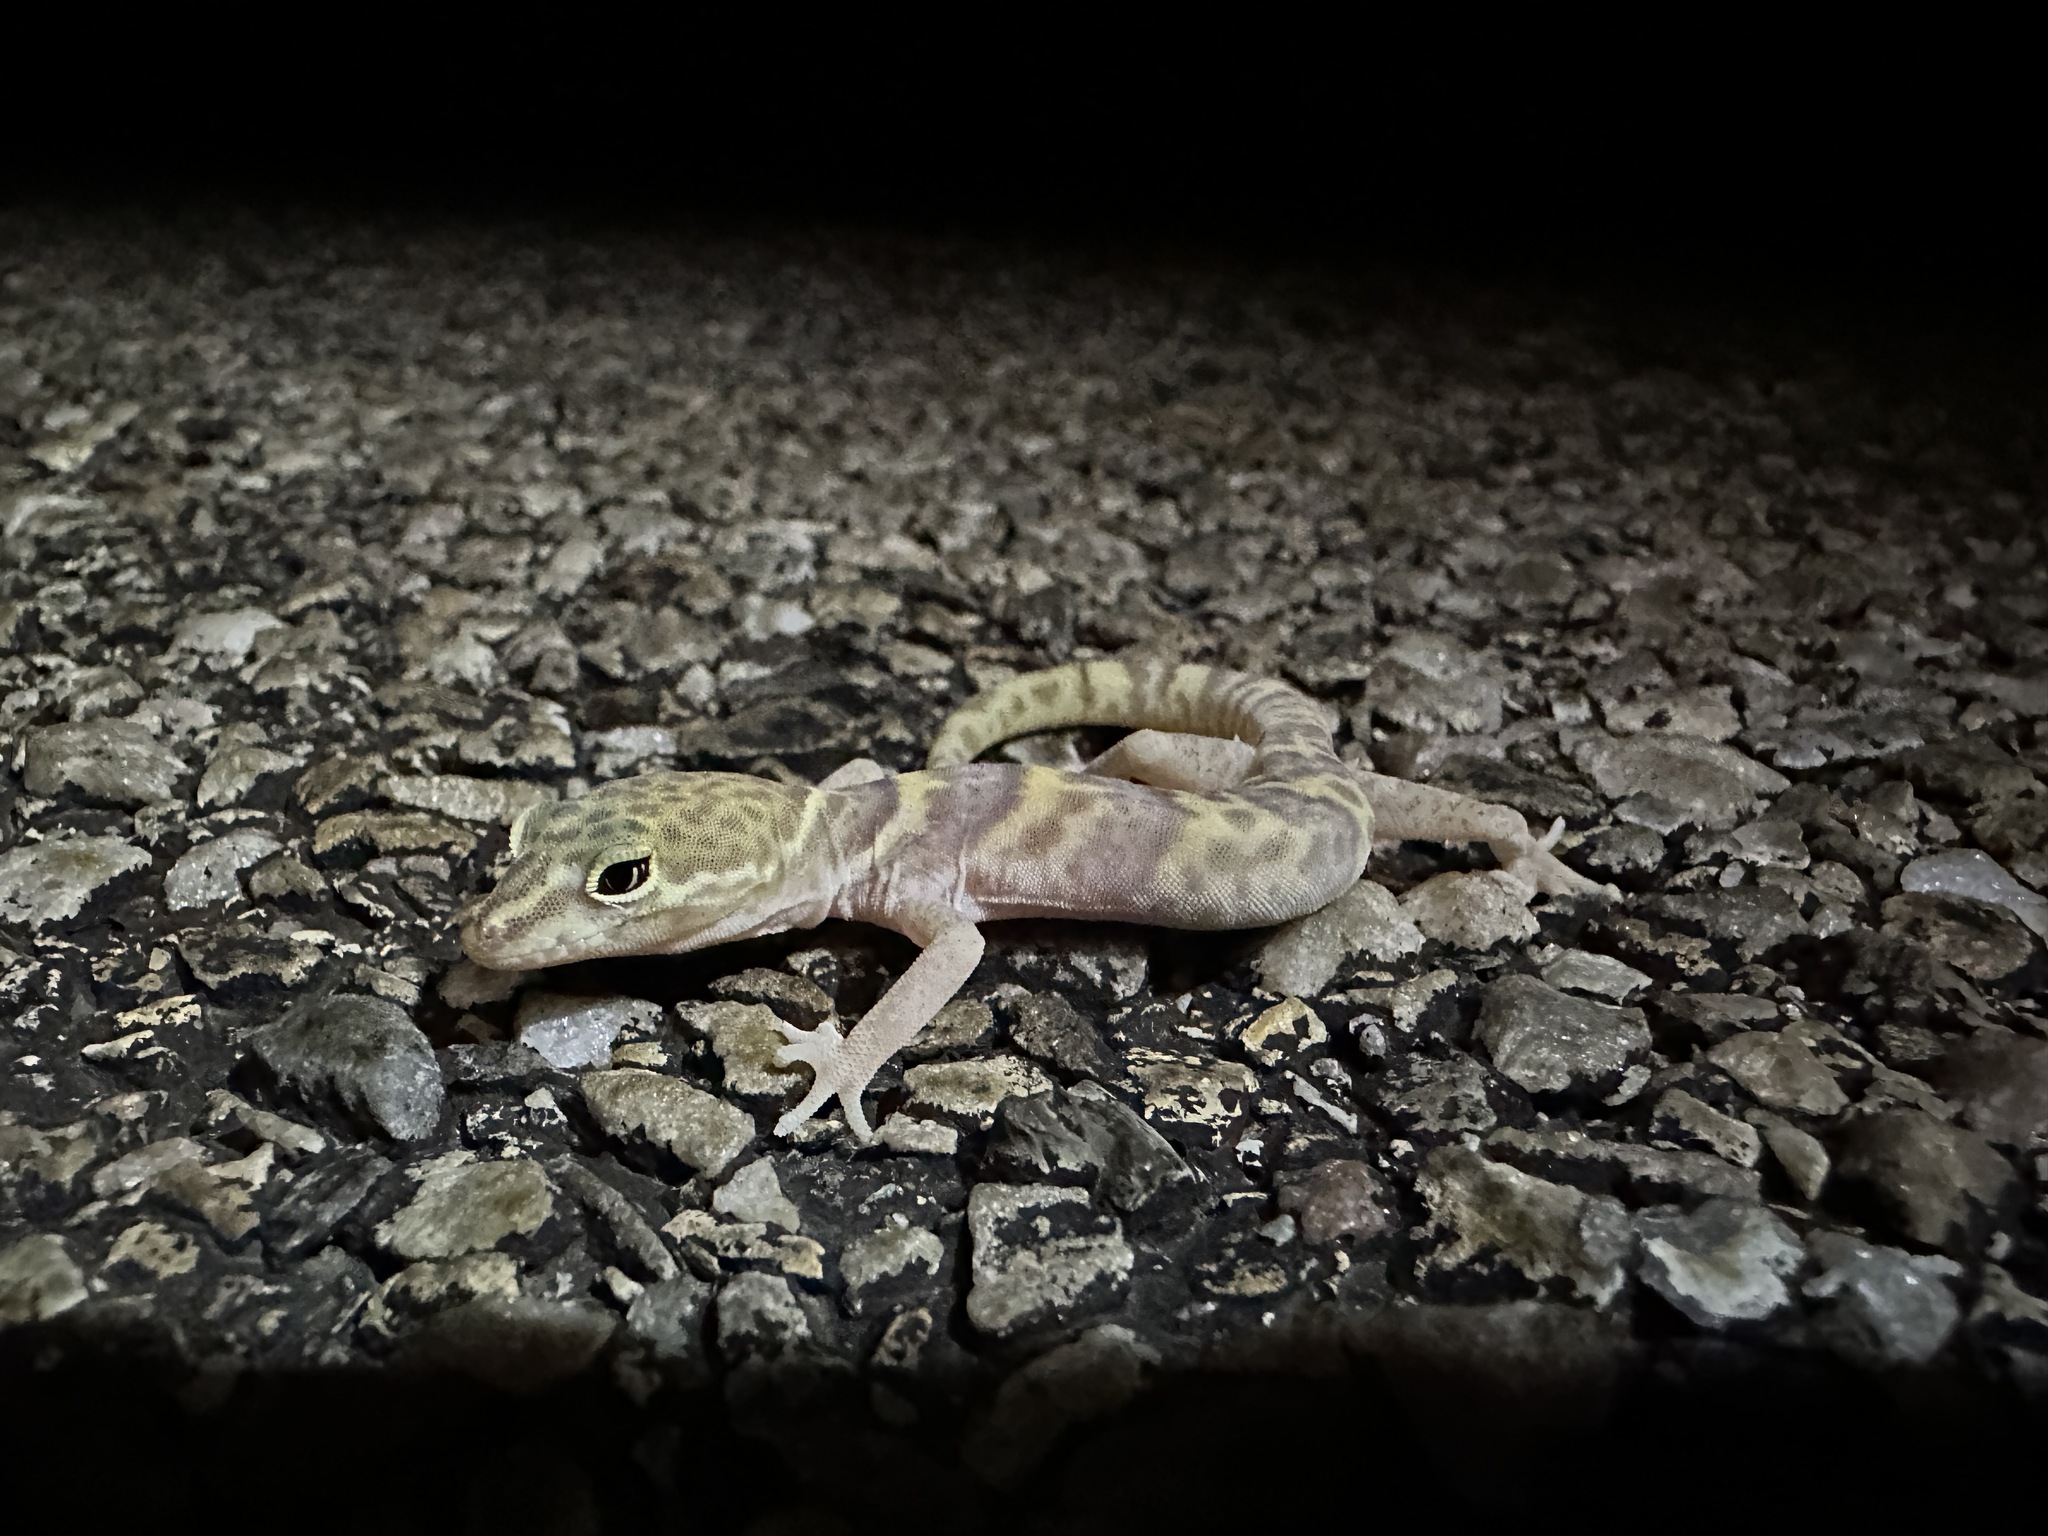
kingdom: Animalia
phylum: Chordata
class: Squamata
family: Eublepharidae
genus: Coleonyx
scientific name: Coleonyx variegatus
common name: Western banded gecko
